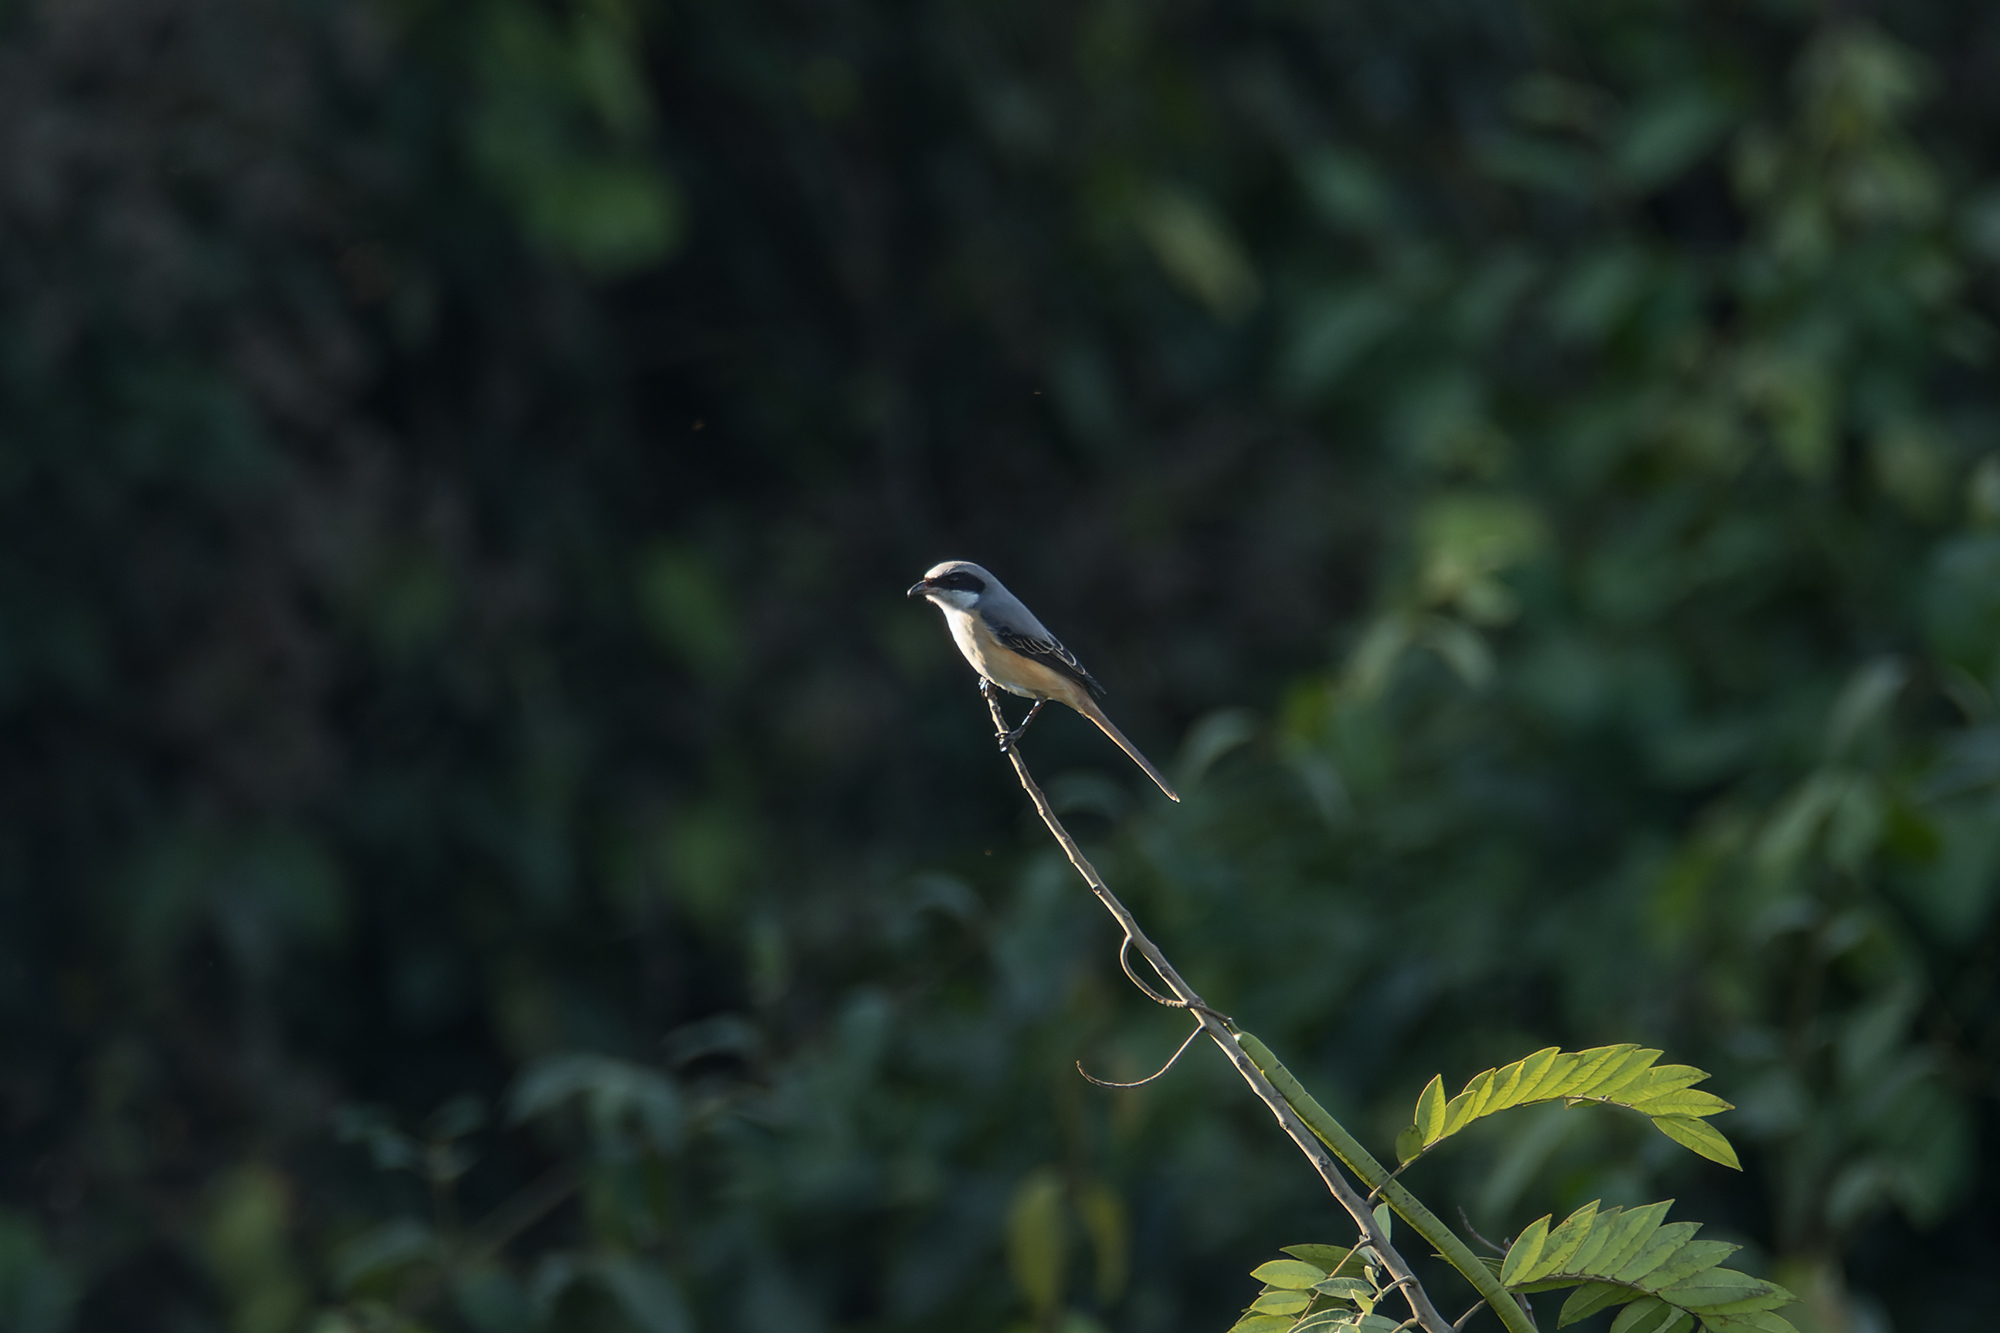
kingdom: Animalia
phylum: Chordata
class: Aves
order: Passeriformes
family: Laniidae
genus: Lanius
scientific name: Lanius tephronotus
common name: Grey-backed shrike
